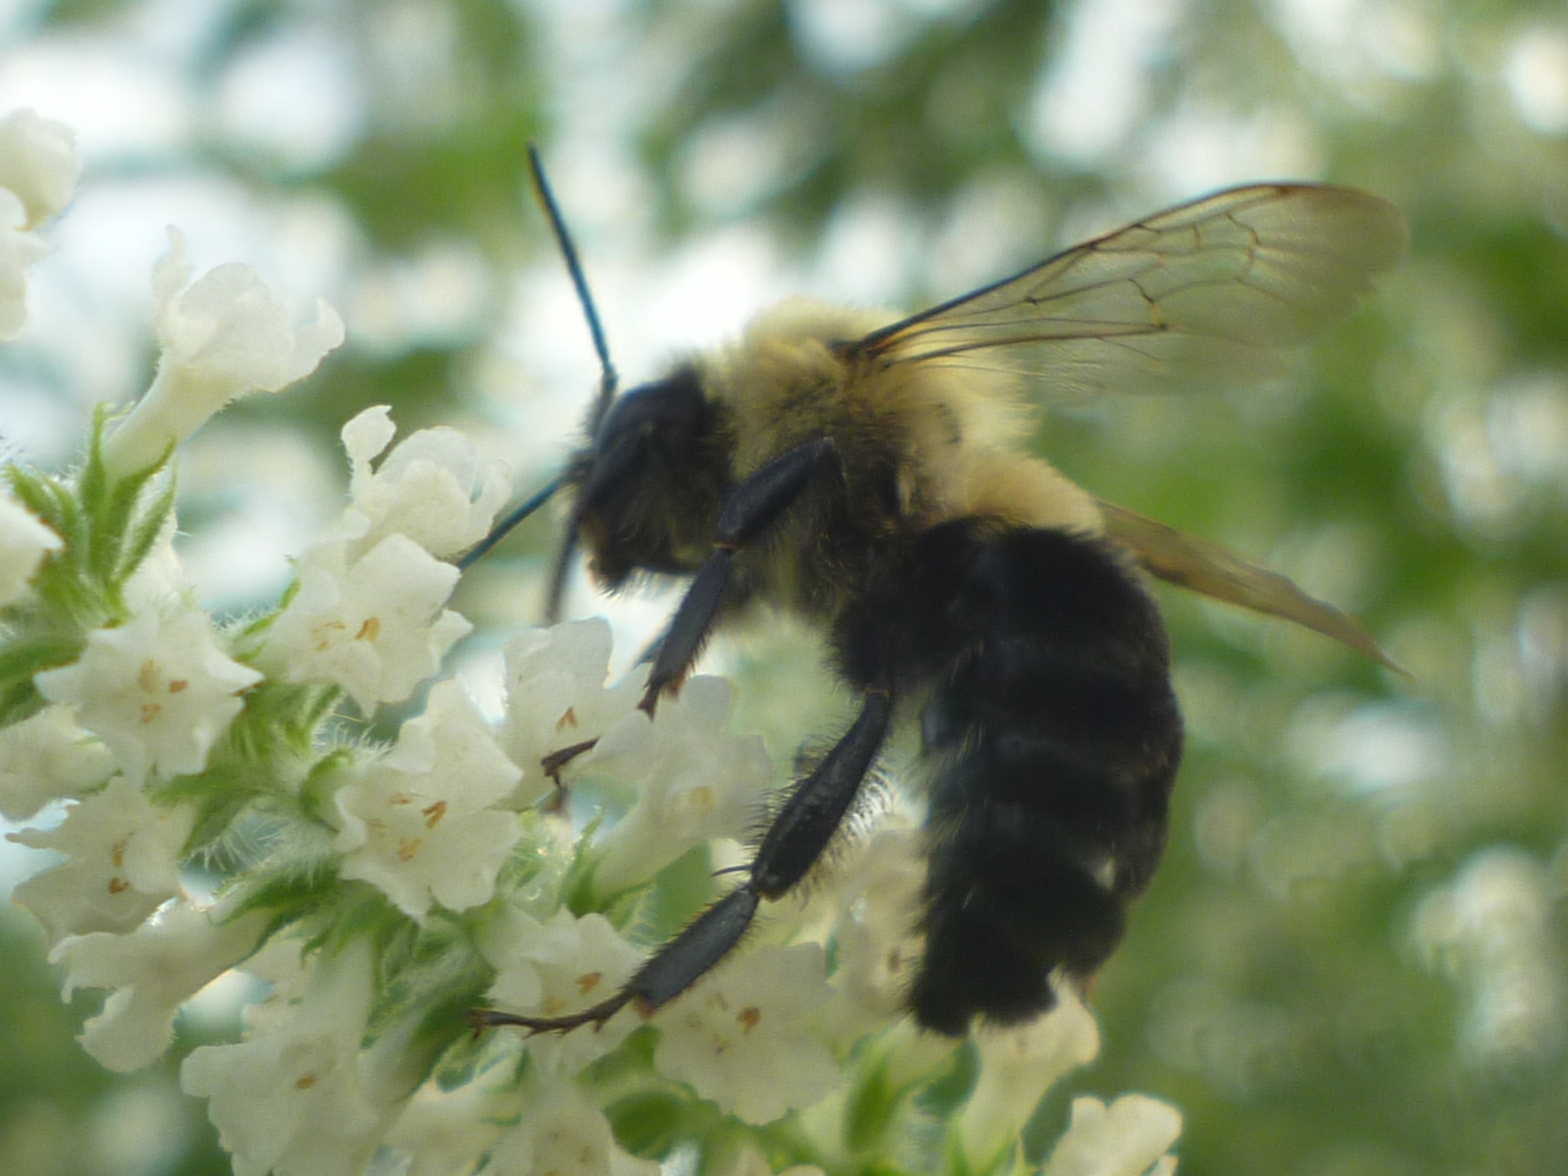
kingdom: Animalia
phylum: Arthropoda
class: Insecta
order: Hymenoptera
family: Apidae
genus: Bombus
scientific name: Bombus impatiens
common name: Common eastern bumble bee
